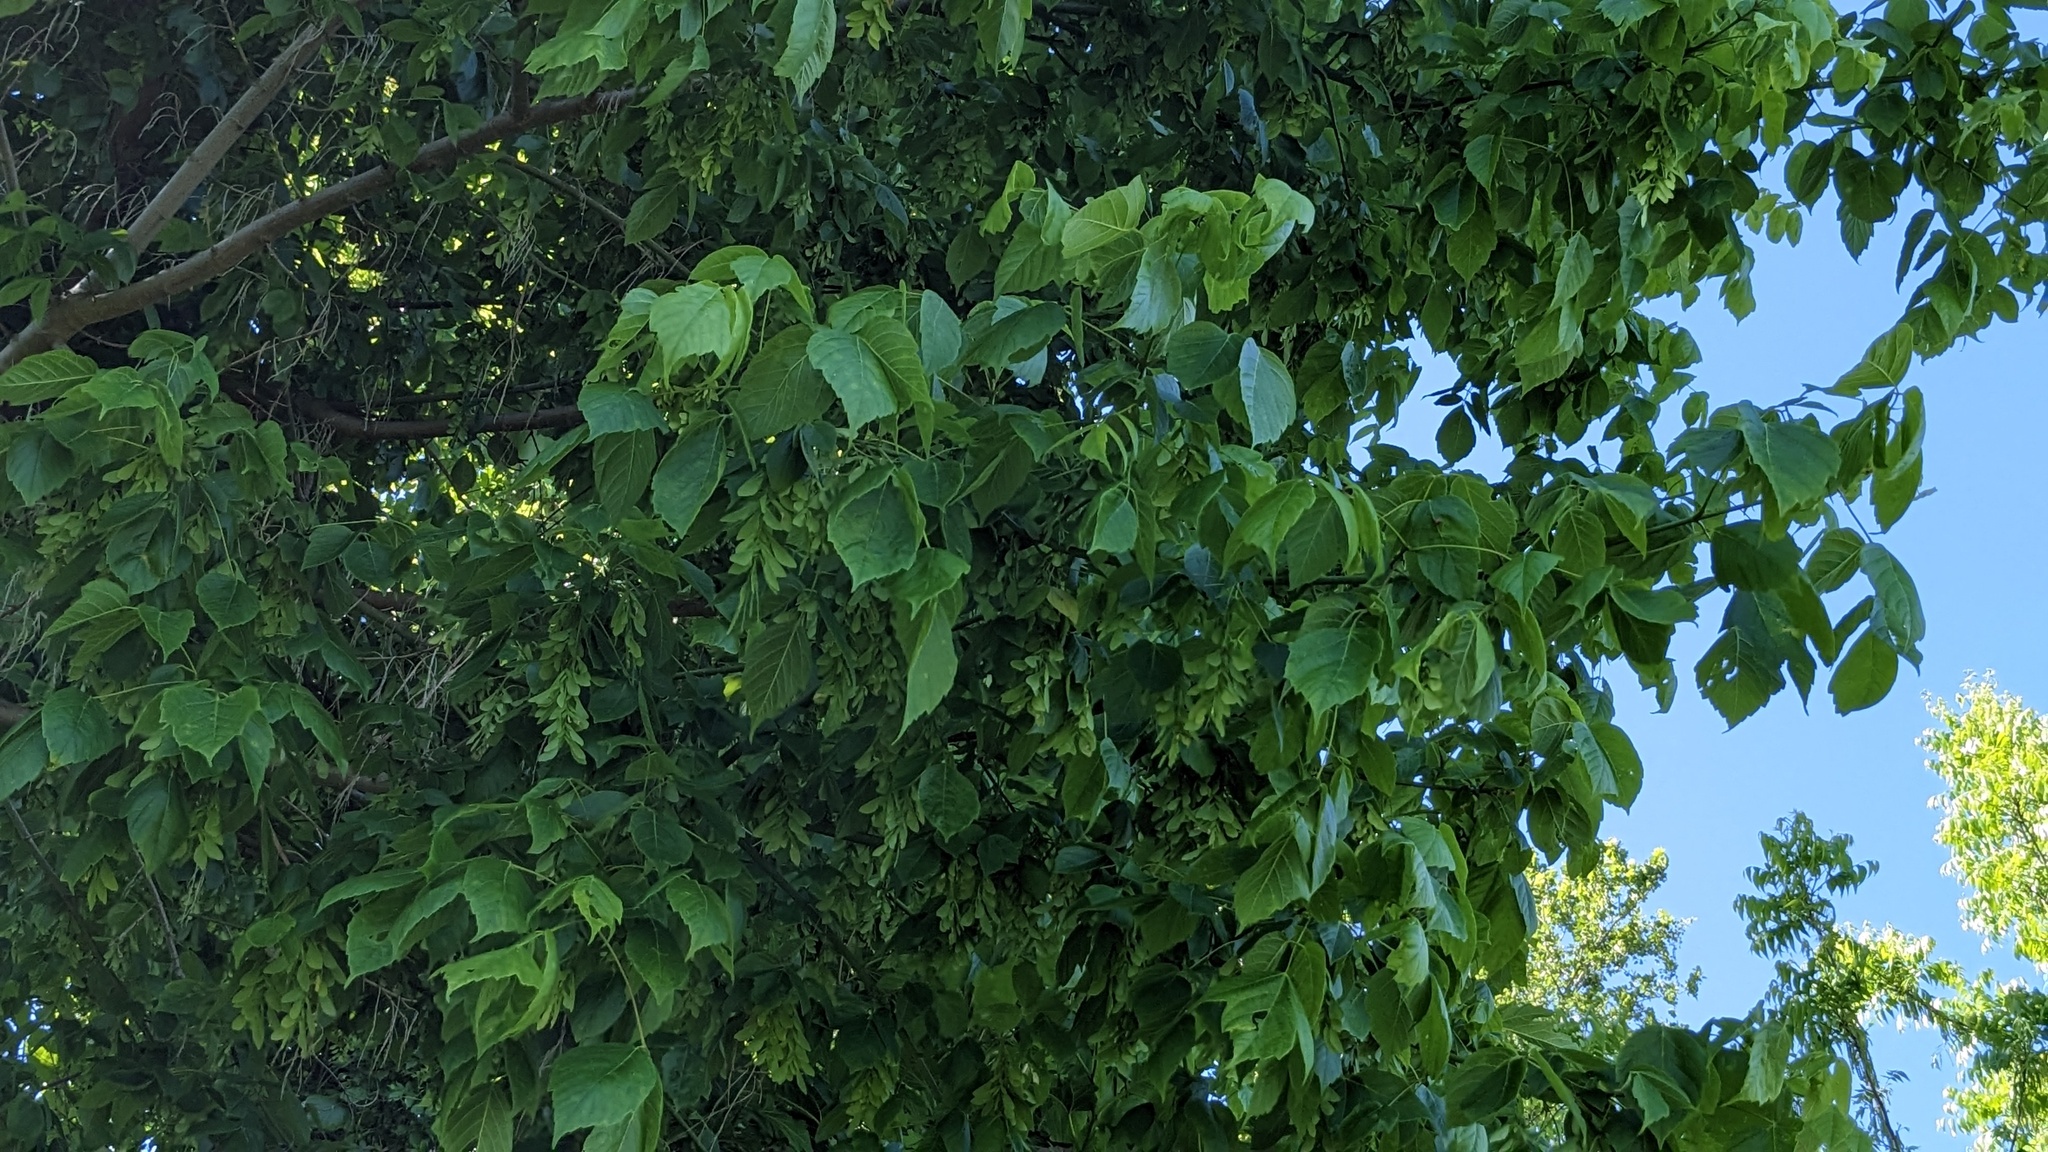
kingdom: Plantae
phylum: Tracheophyta
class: Magnoliopsida
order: Sapindales
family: Sapindaceae
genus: Acer
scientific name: Acer negundo
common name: Ashleaf maple
